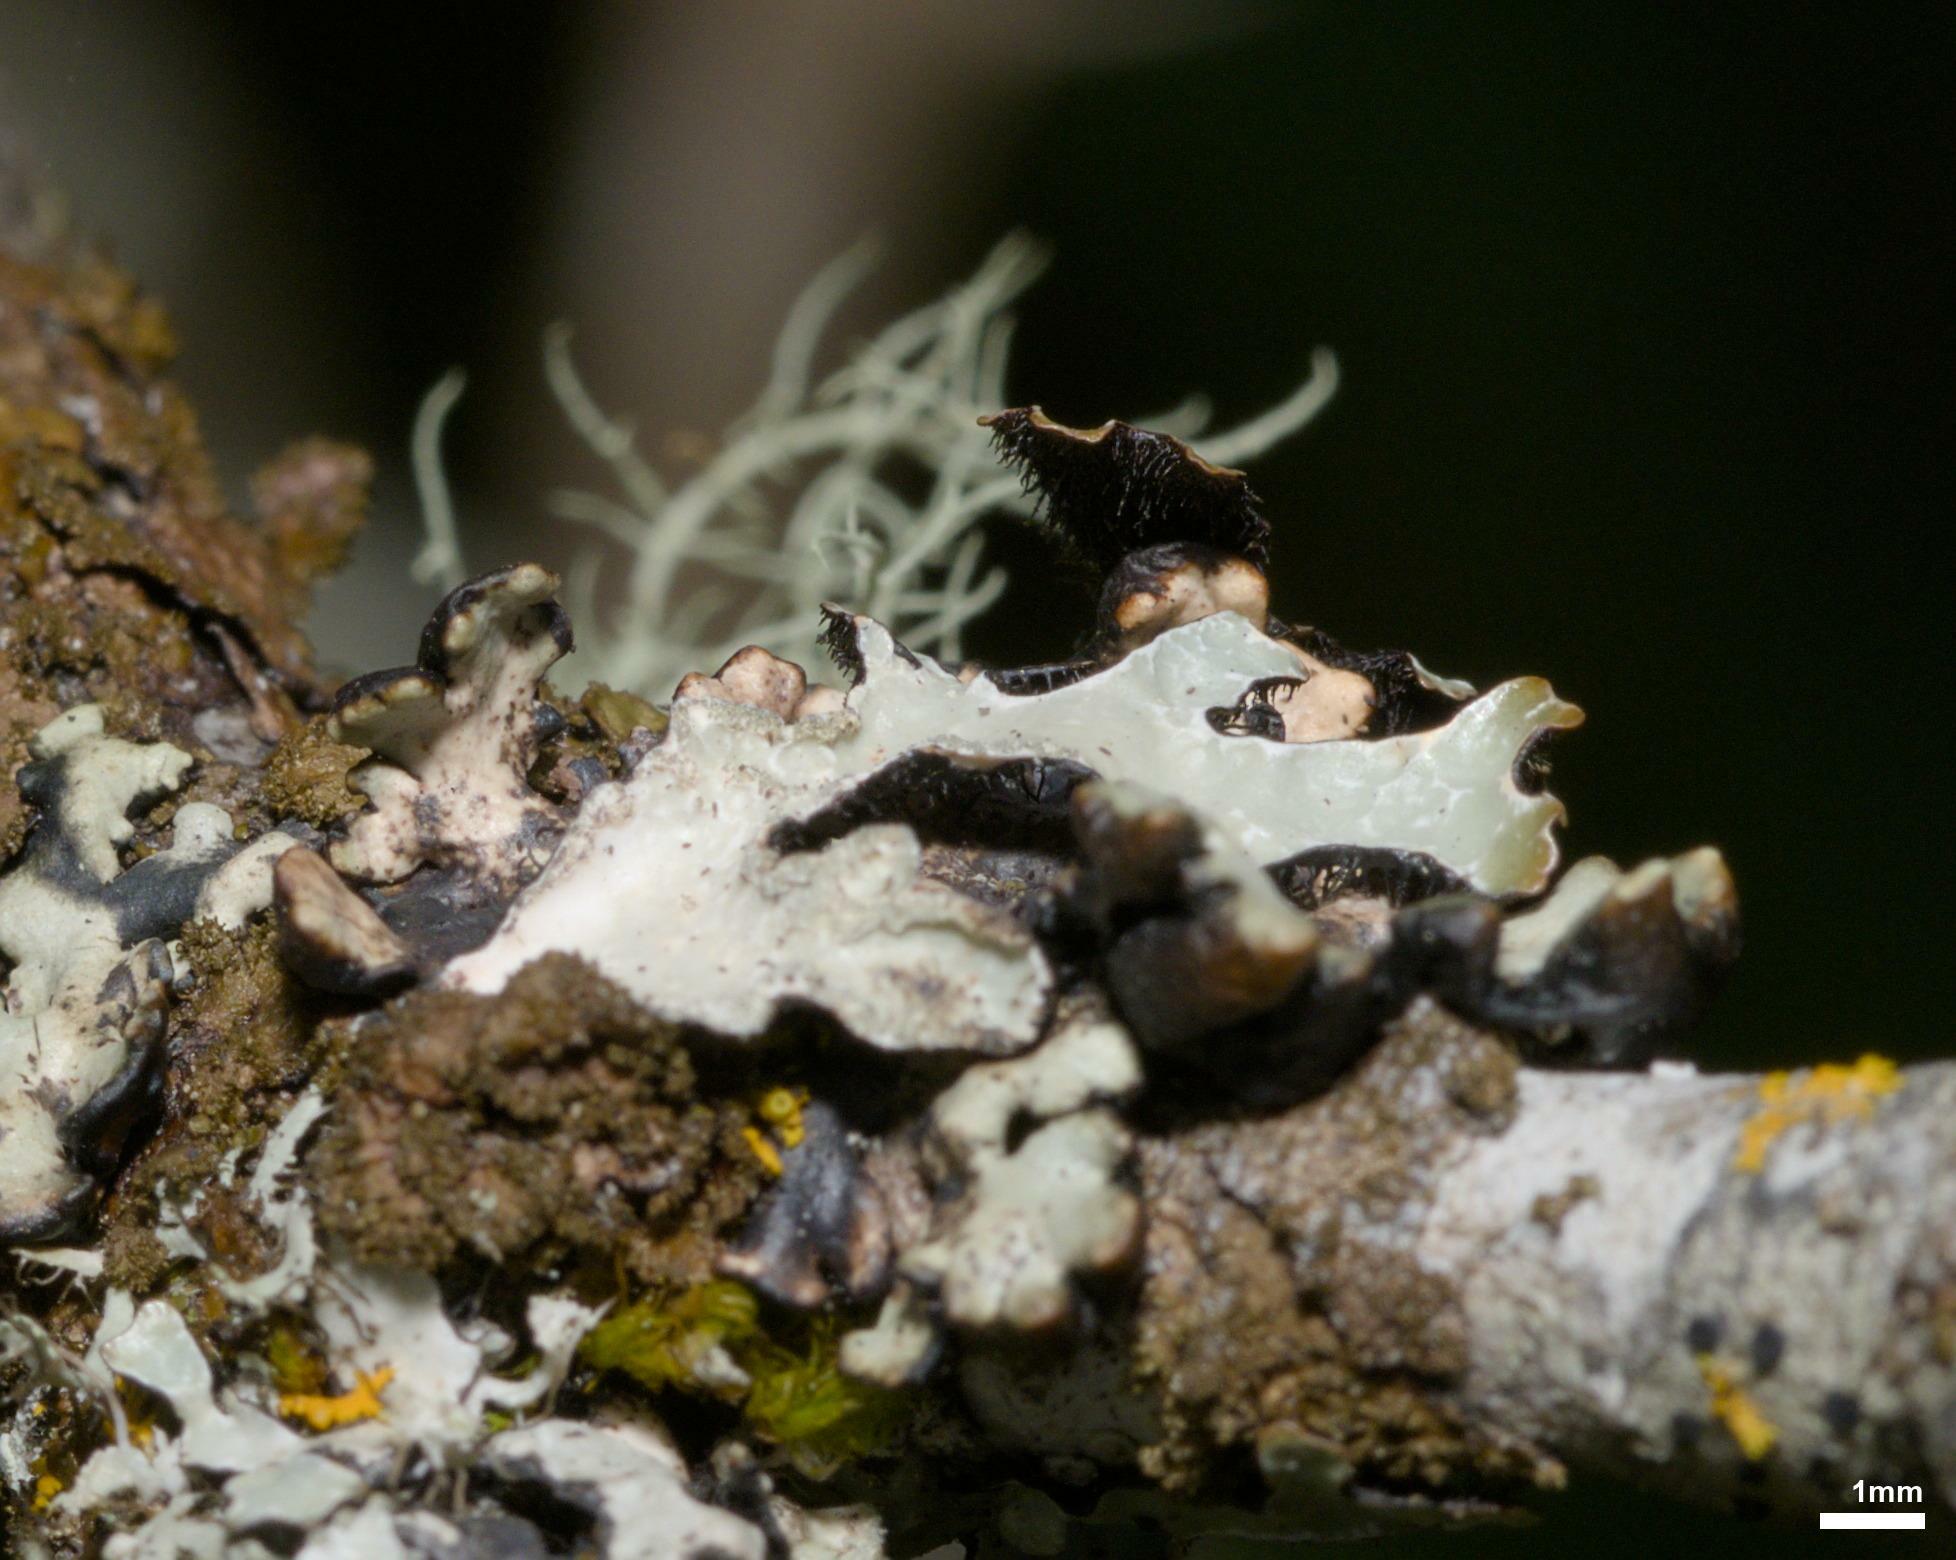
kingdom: Fungi
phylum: Ascomycota
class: Lecanoromycetes
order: Lecanorales
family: Parmeliaceae
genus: Parmelia
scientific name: Parmelia sulcata
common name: Netted shield lichen
